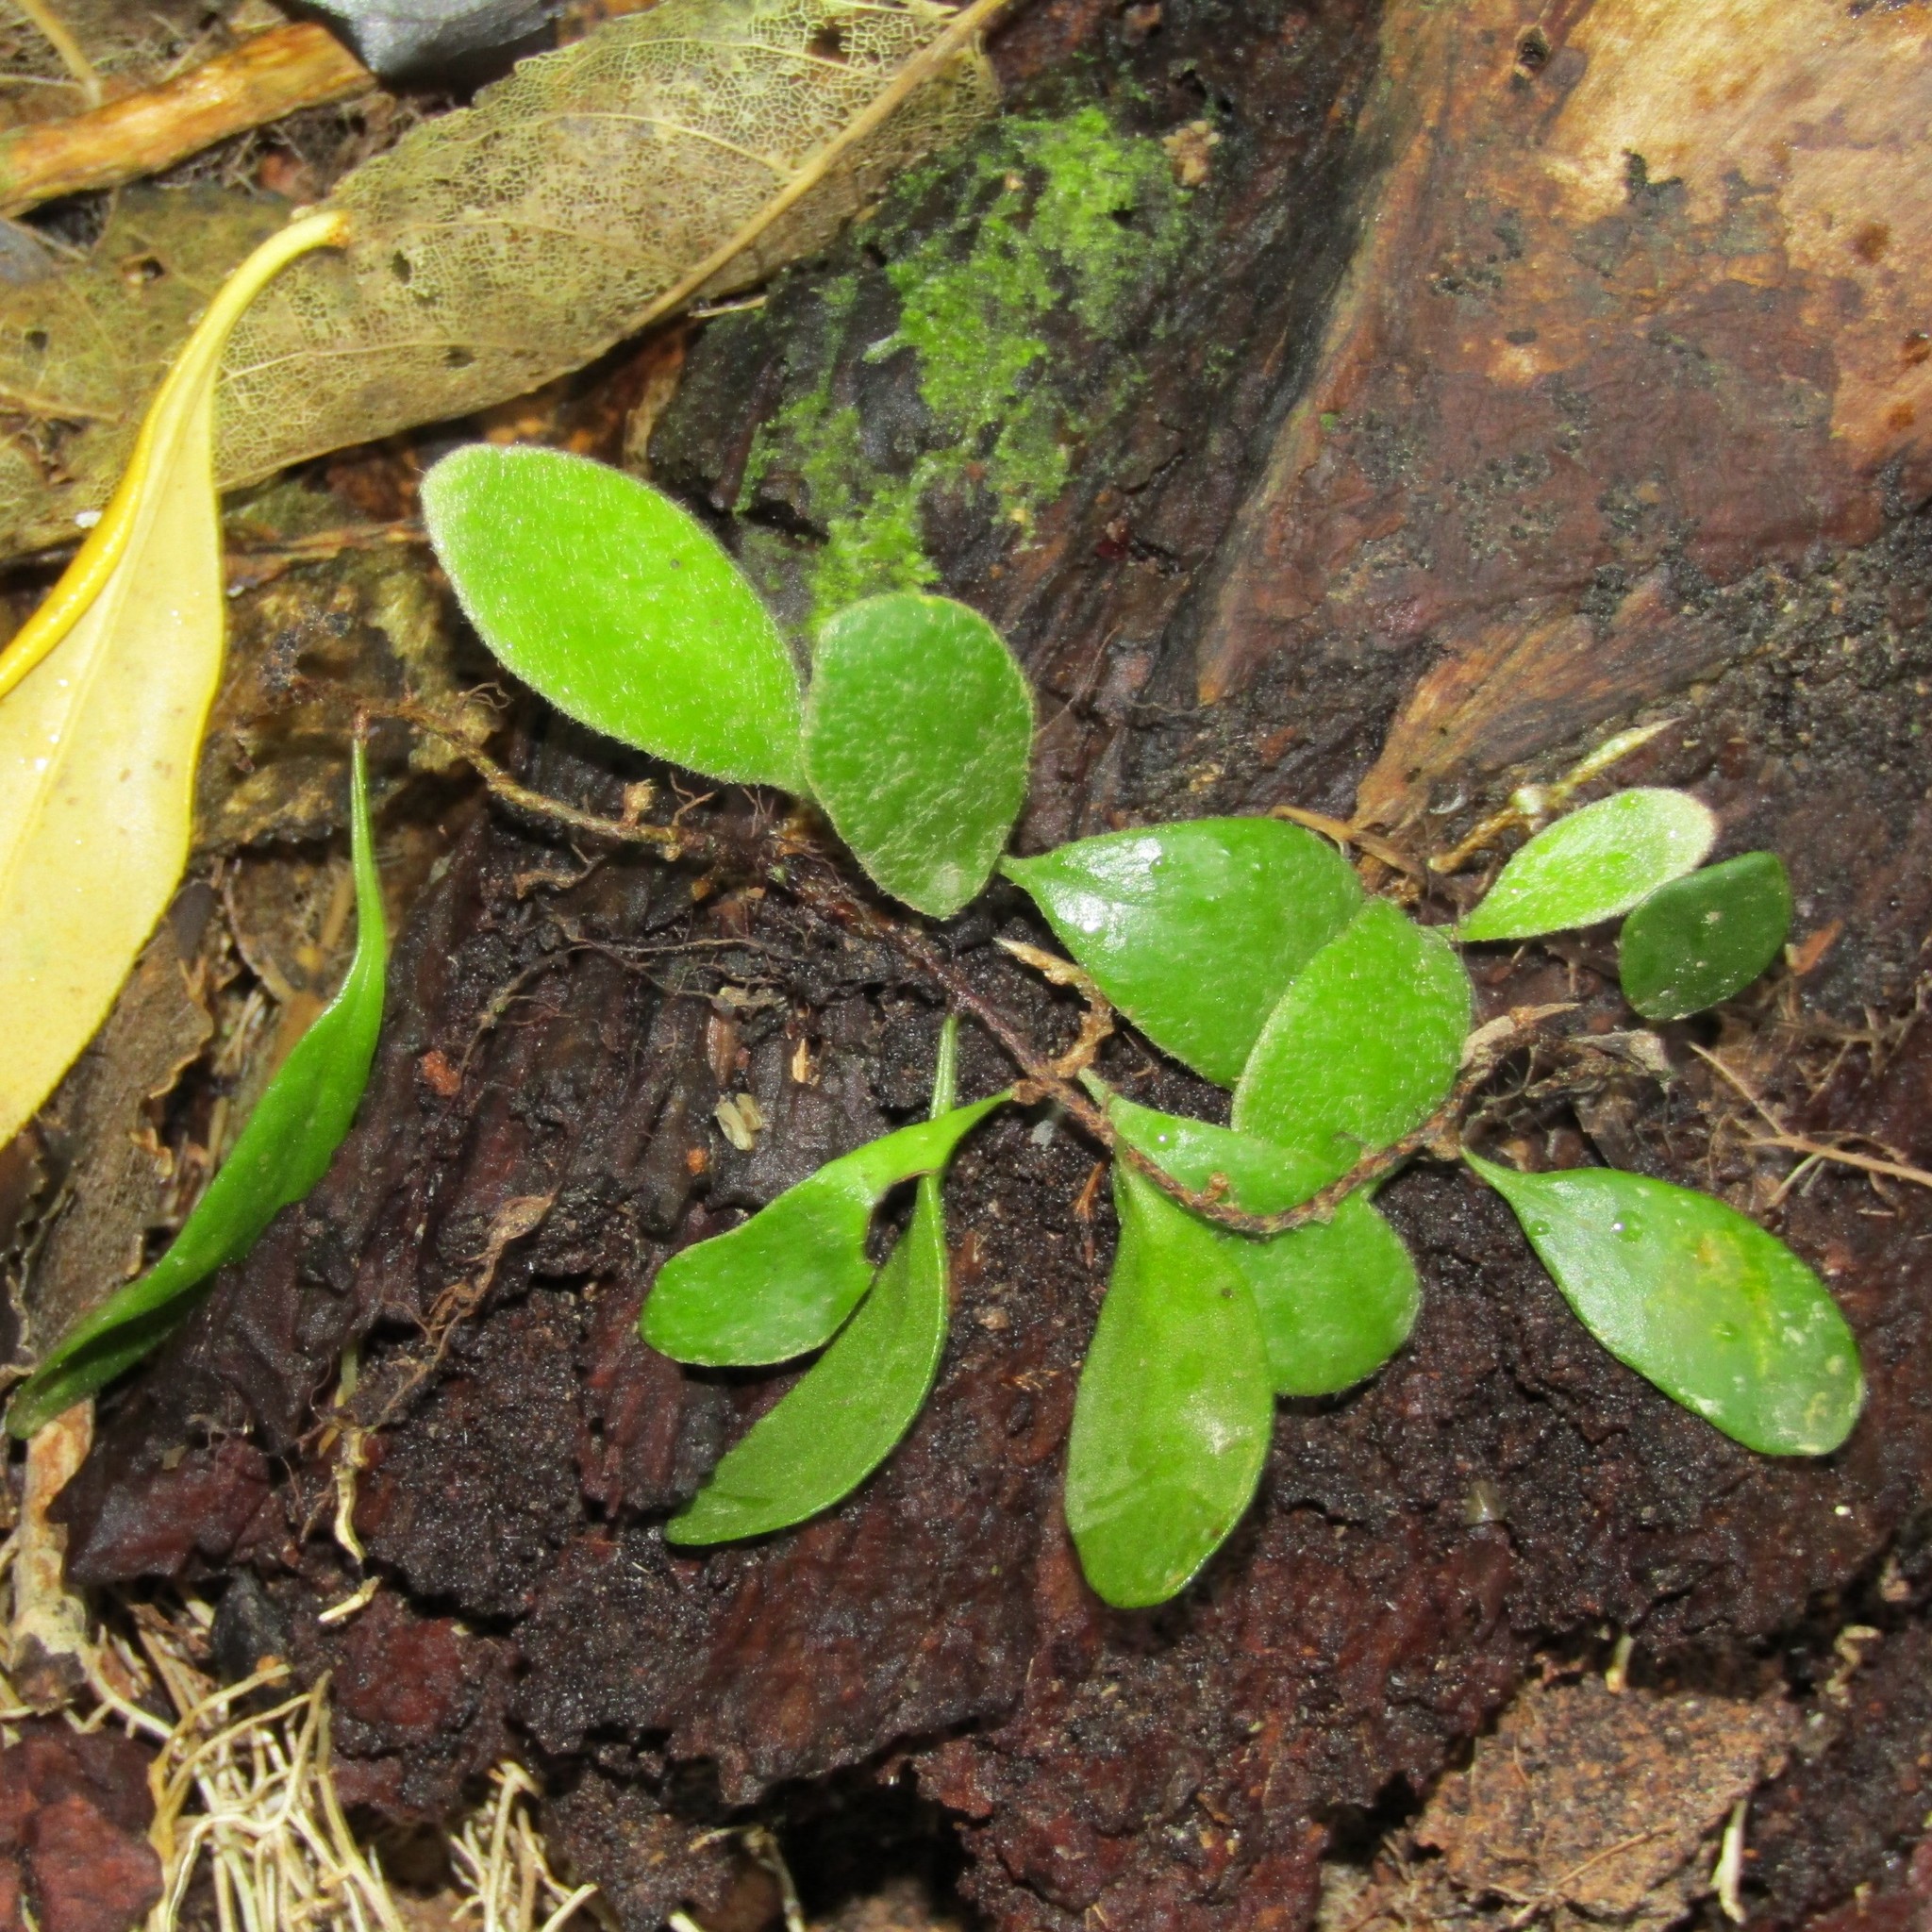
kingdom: Plantae
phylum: Tracheophyta
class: Polypodiopsida
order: Polypodiales
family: Polypodiaceae
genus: Pyrrosia
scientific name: Pyrrosia eleagnifolia
